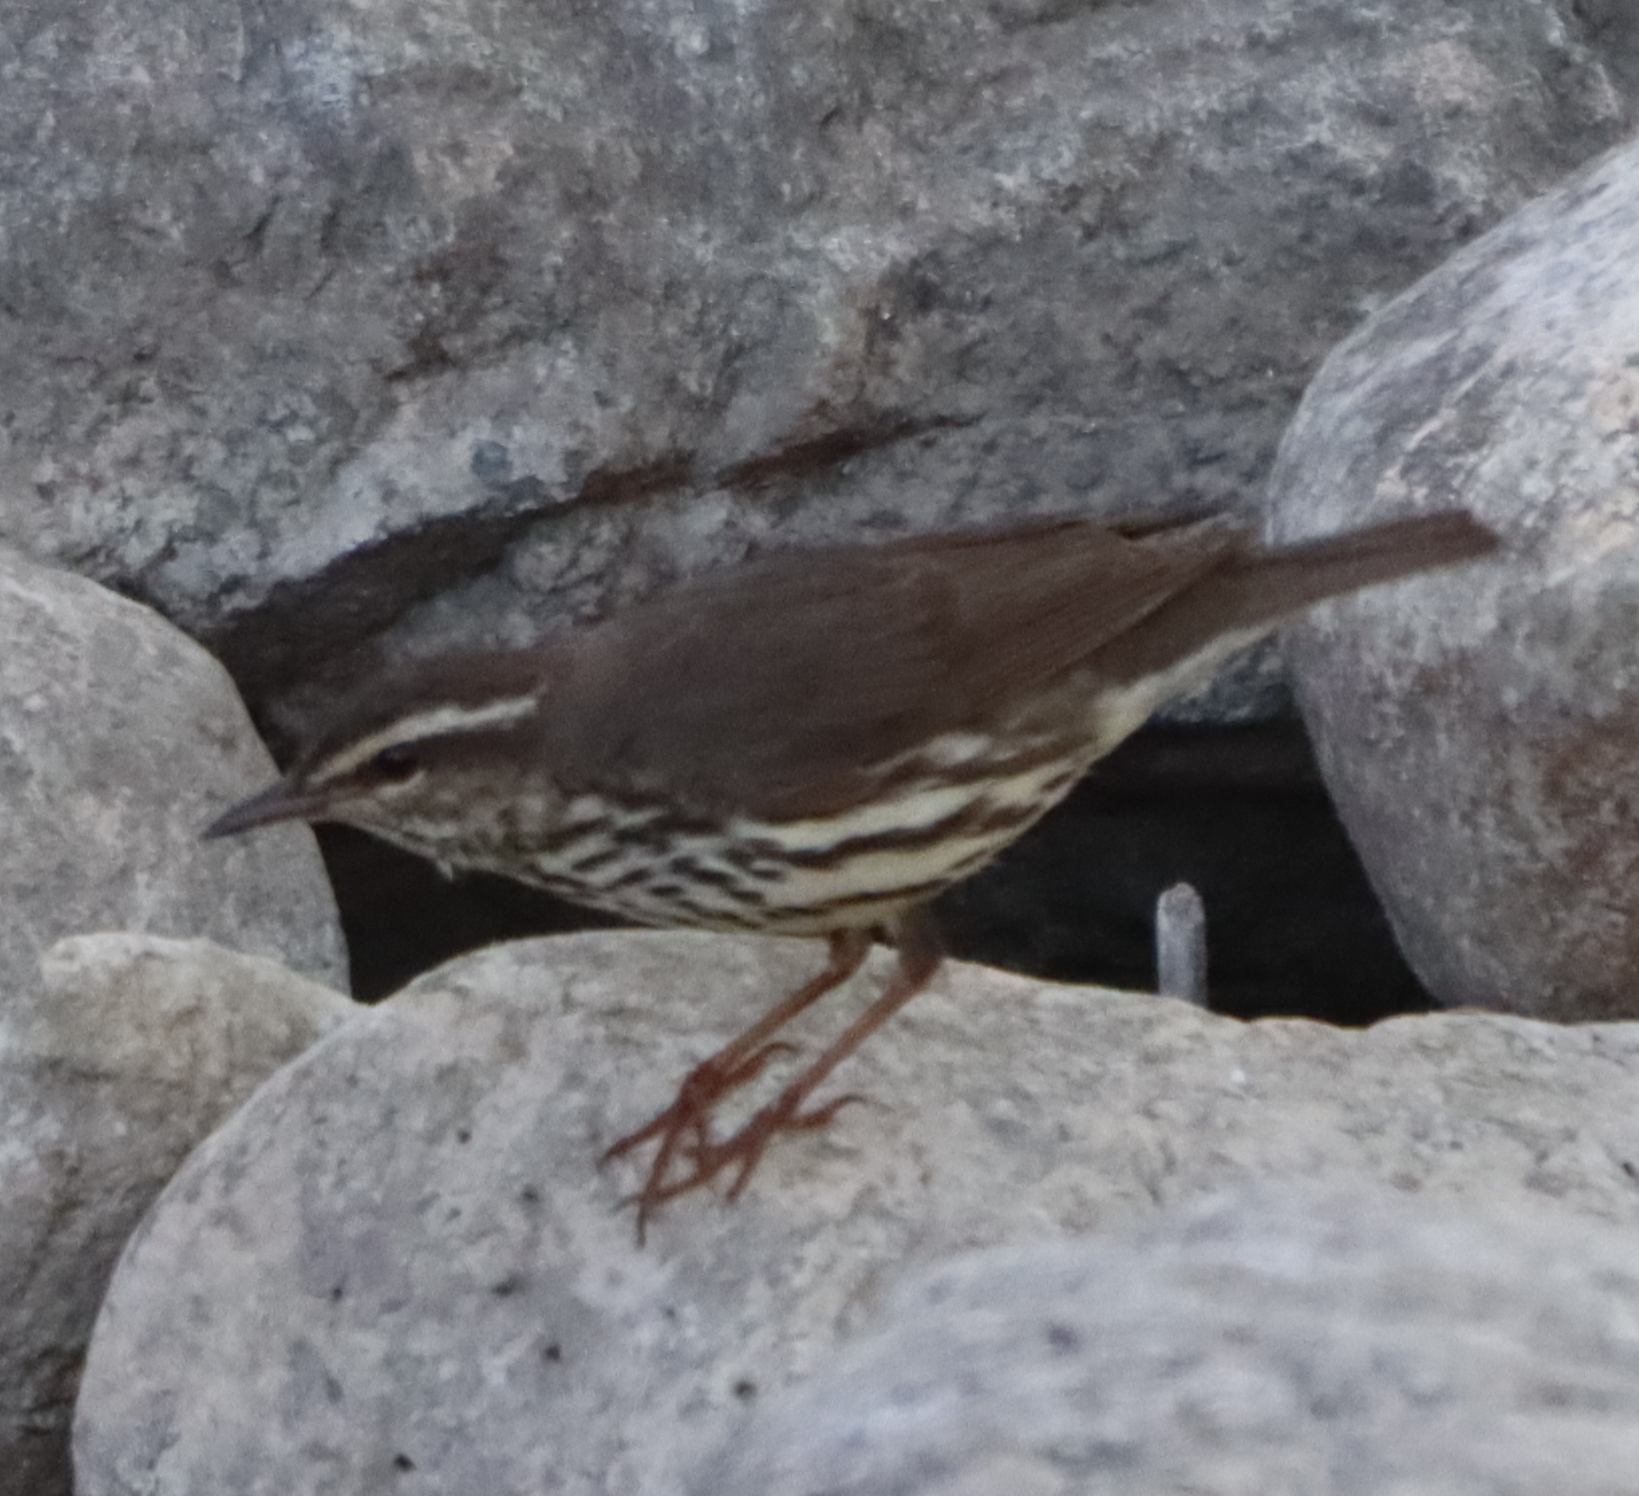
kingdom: Animalia
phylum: Chordata
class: Aves
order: Passeriformes
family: Parulidae
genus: Parkesia
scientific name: Parkesia noveboracensis
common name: Northern waterthrush
